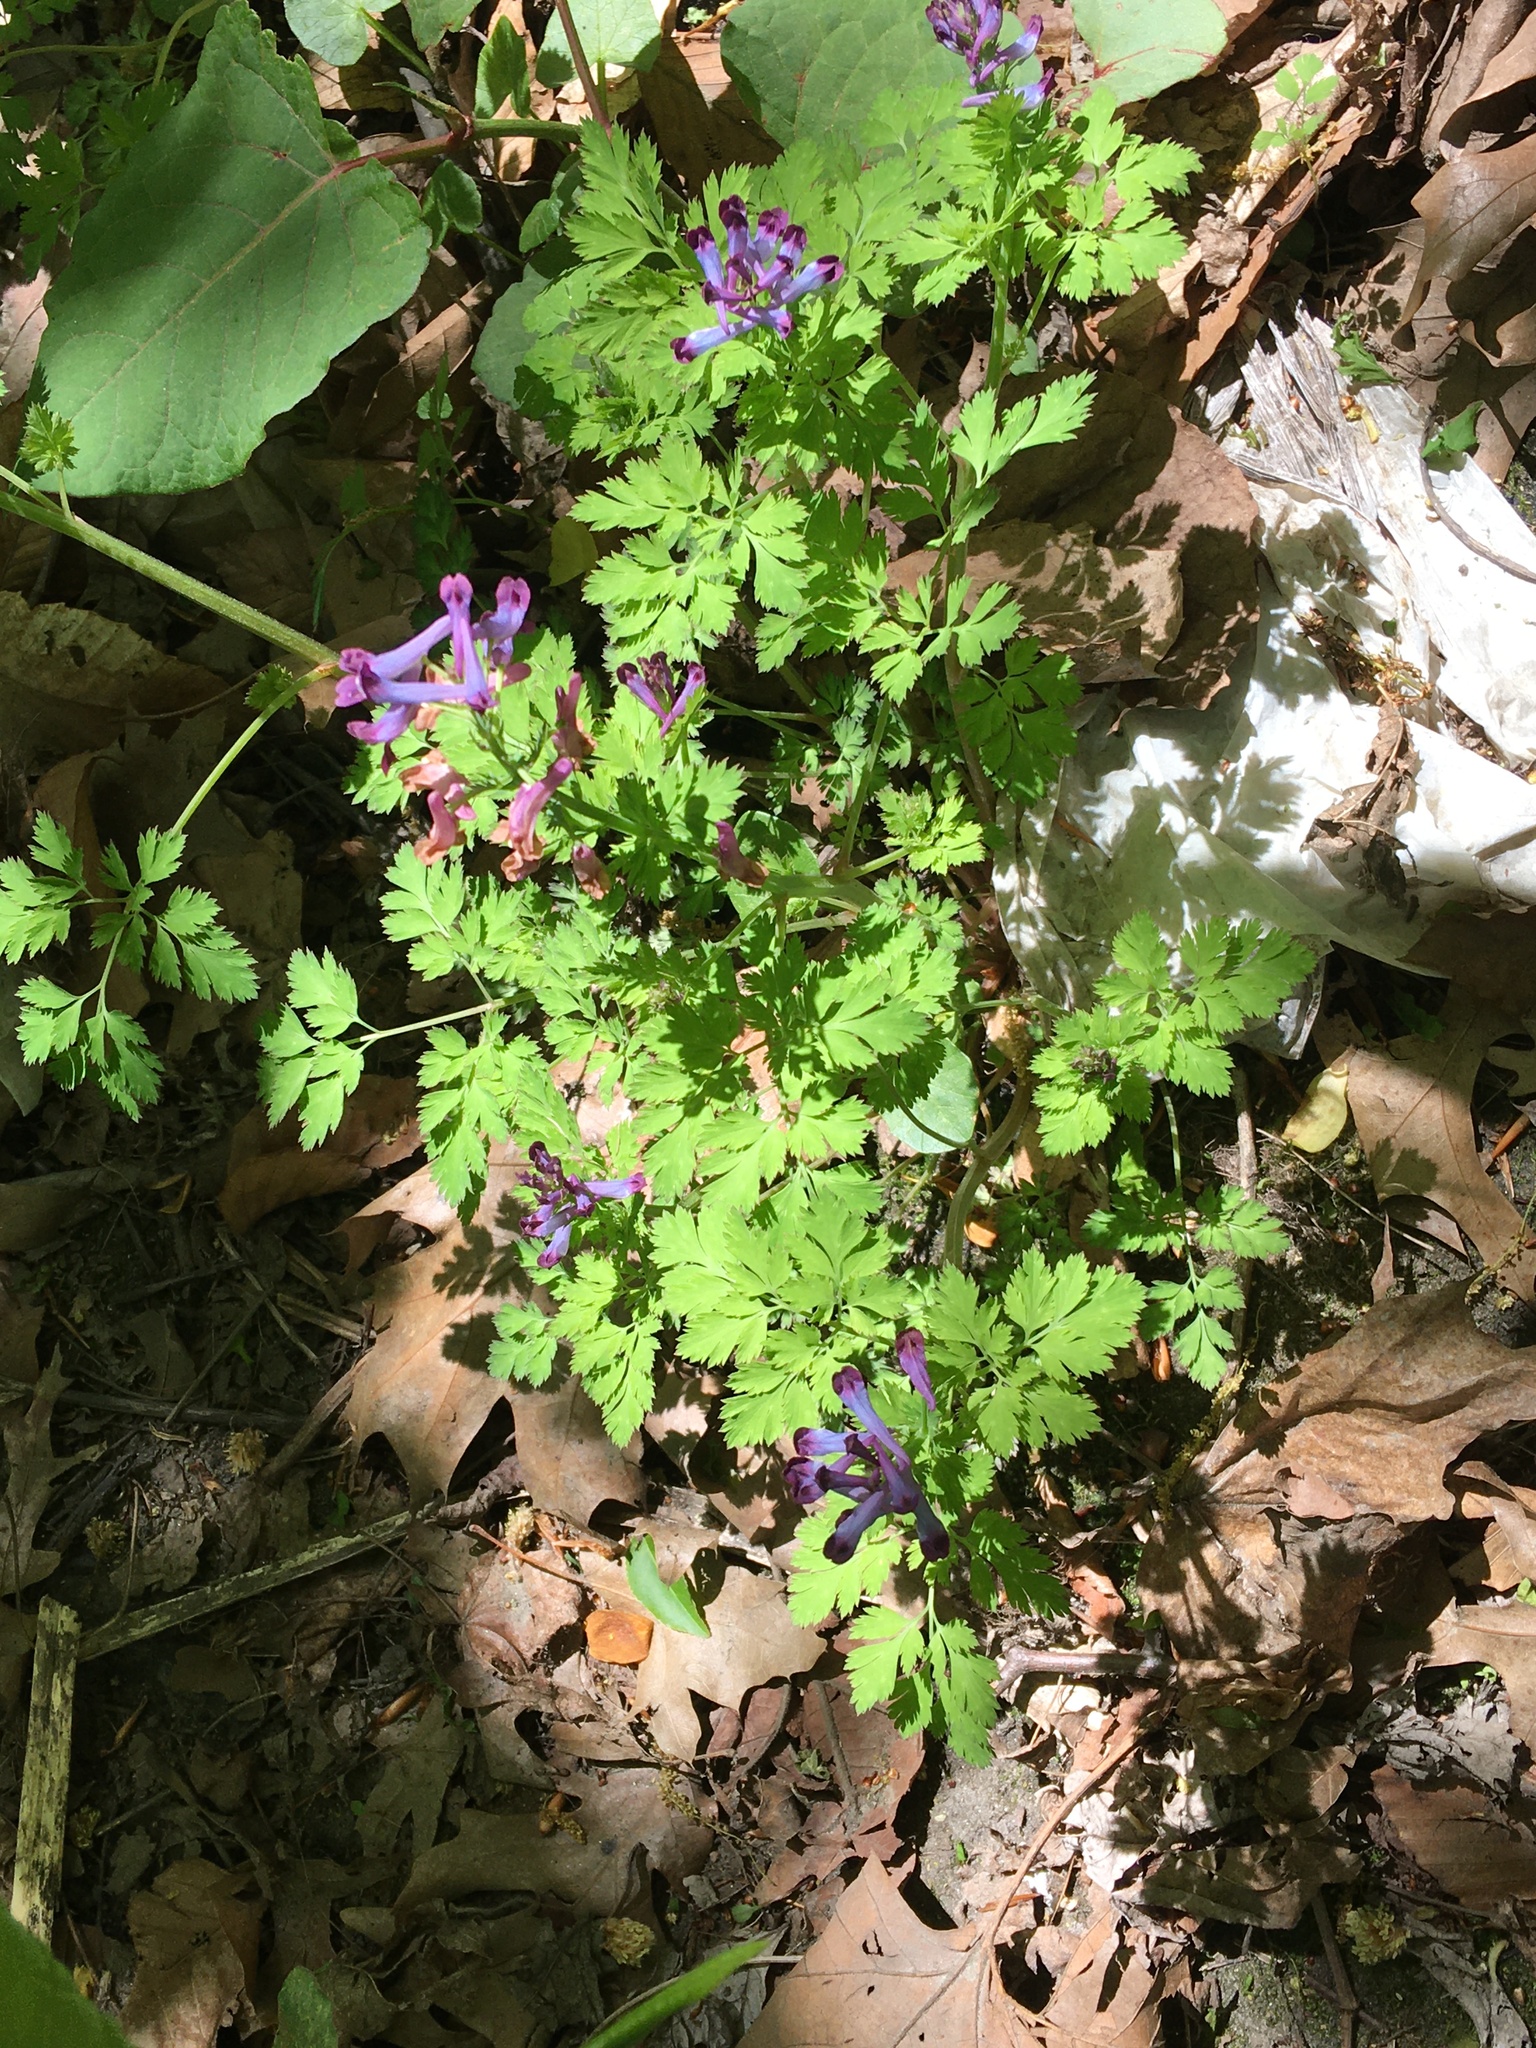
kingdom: Plantae
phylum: Tracheophyta
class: Magnoliopsida
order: Ranunculales
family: Papaveraceae
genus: Corydalis
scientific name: Corydalis incisa
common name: Incised fumewort
